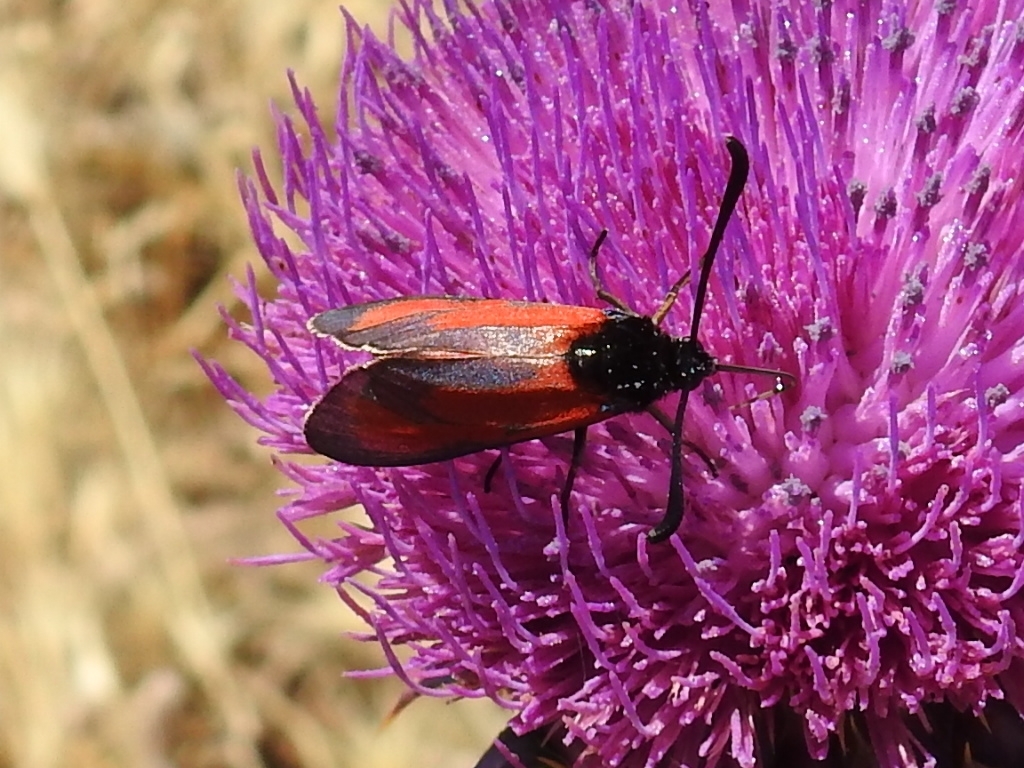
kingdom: Animalia
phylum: Arthropoda
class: Insecta
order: Lepidoptera
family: Zygaenidae
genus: Zygaena
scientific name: Zygaena erythrus
